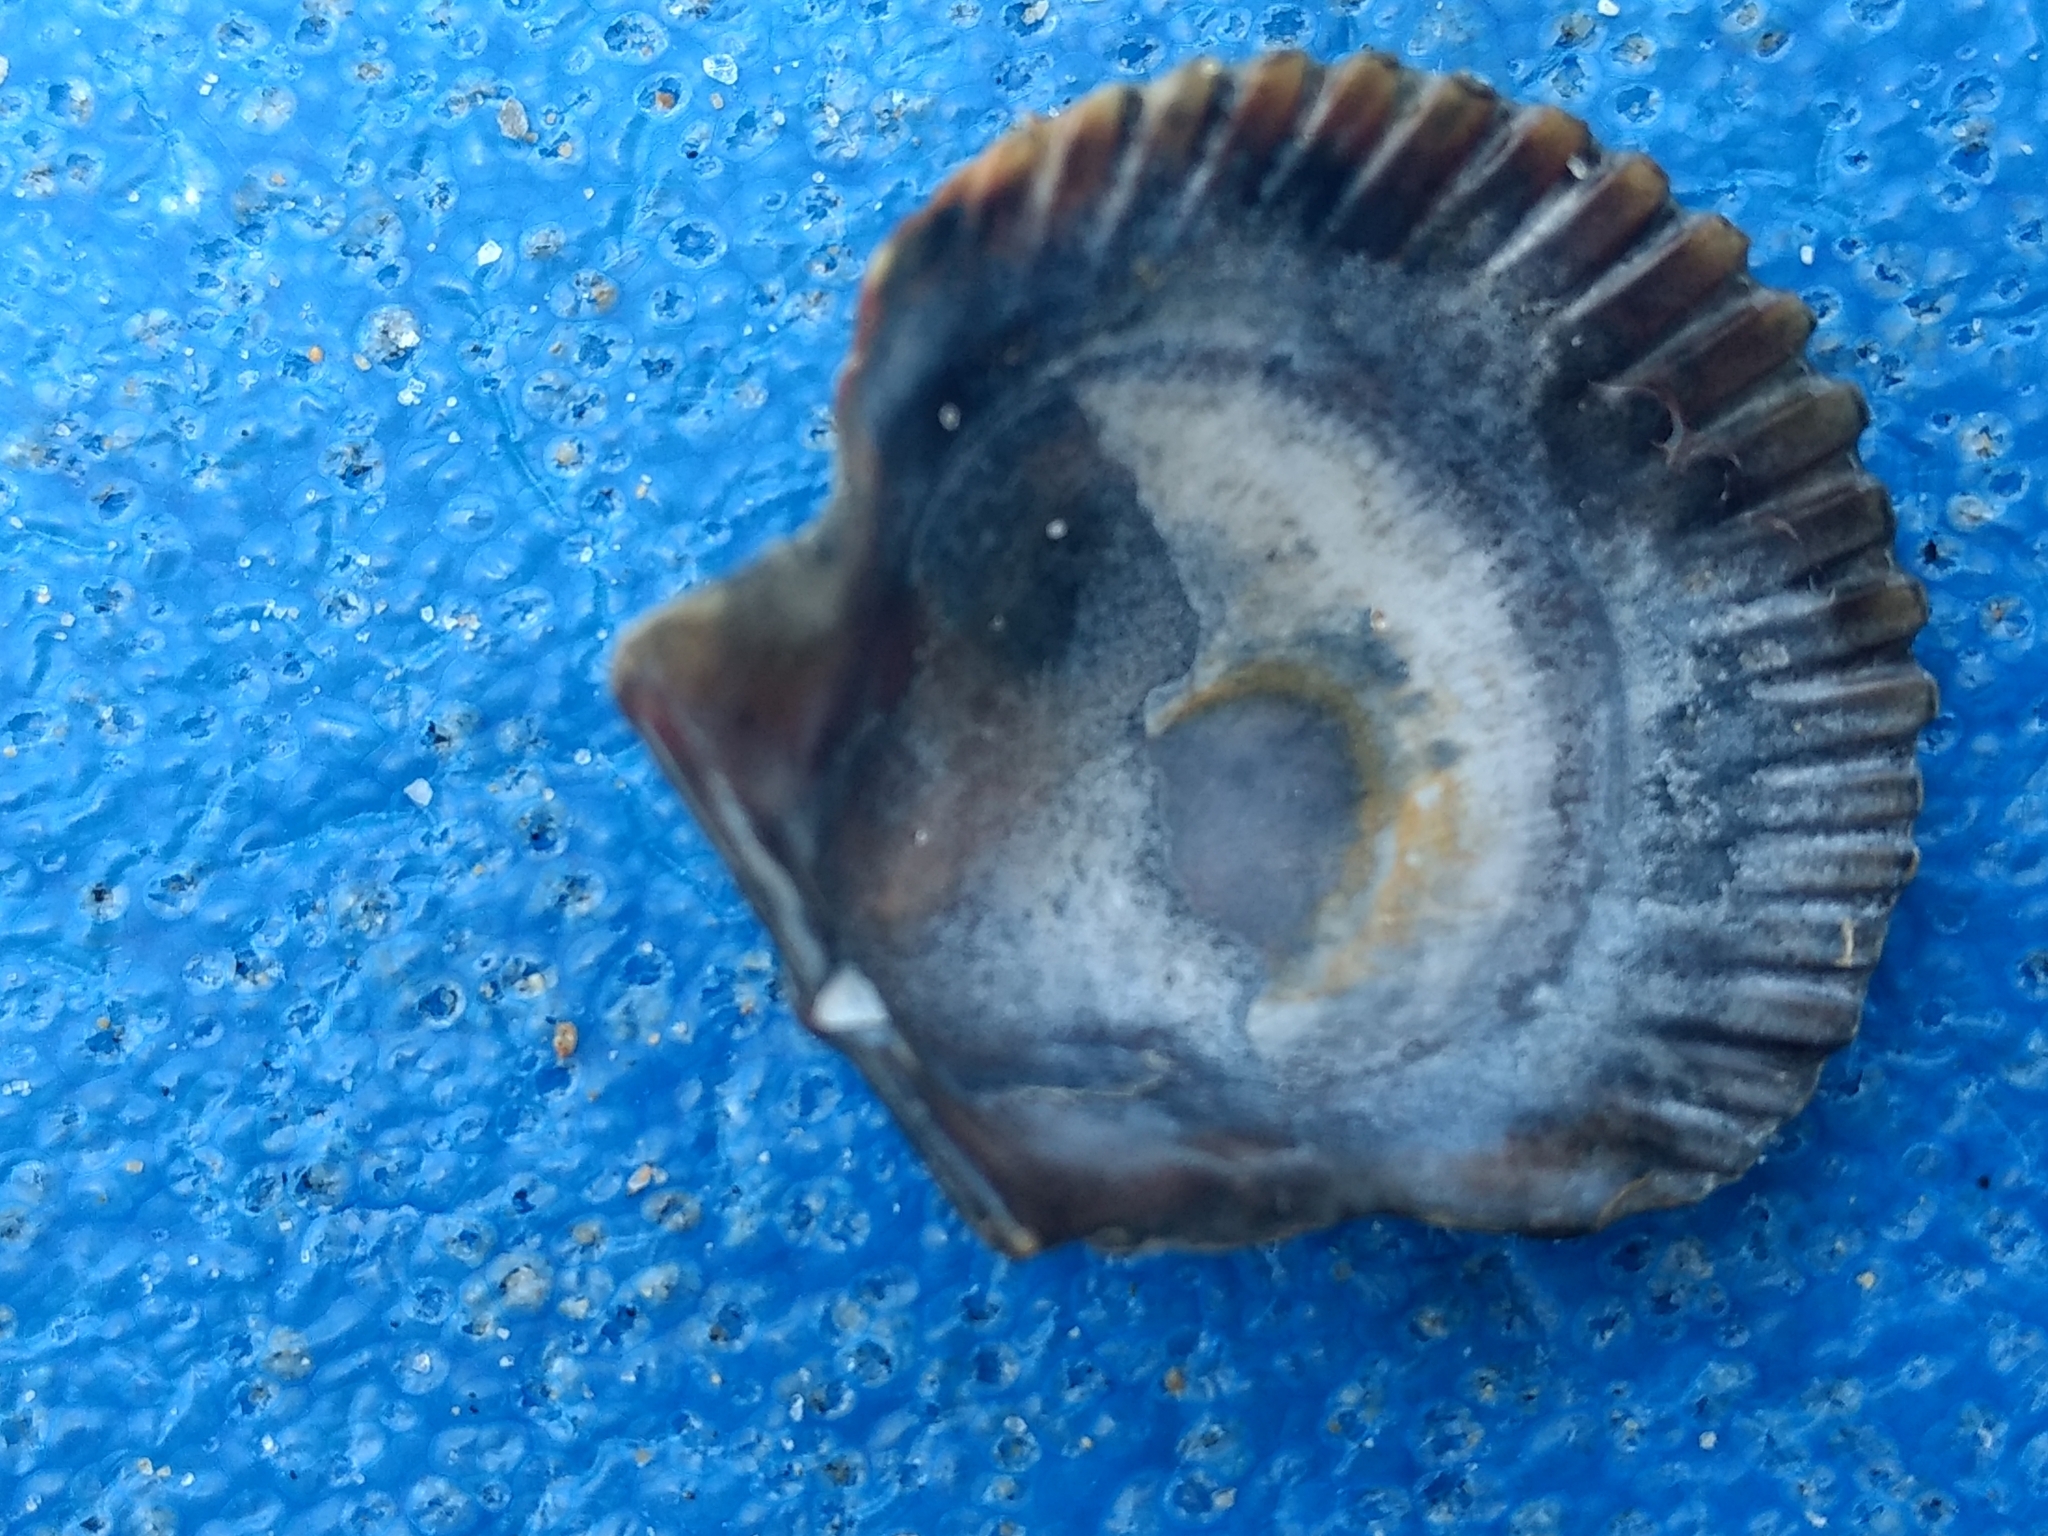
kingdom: Animalia
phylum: Mollusca
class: Bivalvia
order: Pectinida
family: Pectinidae
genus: Argopecten
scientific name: Argopecten ventricosus
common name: Catarina scallop
